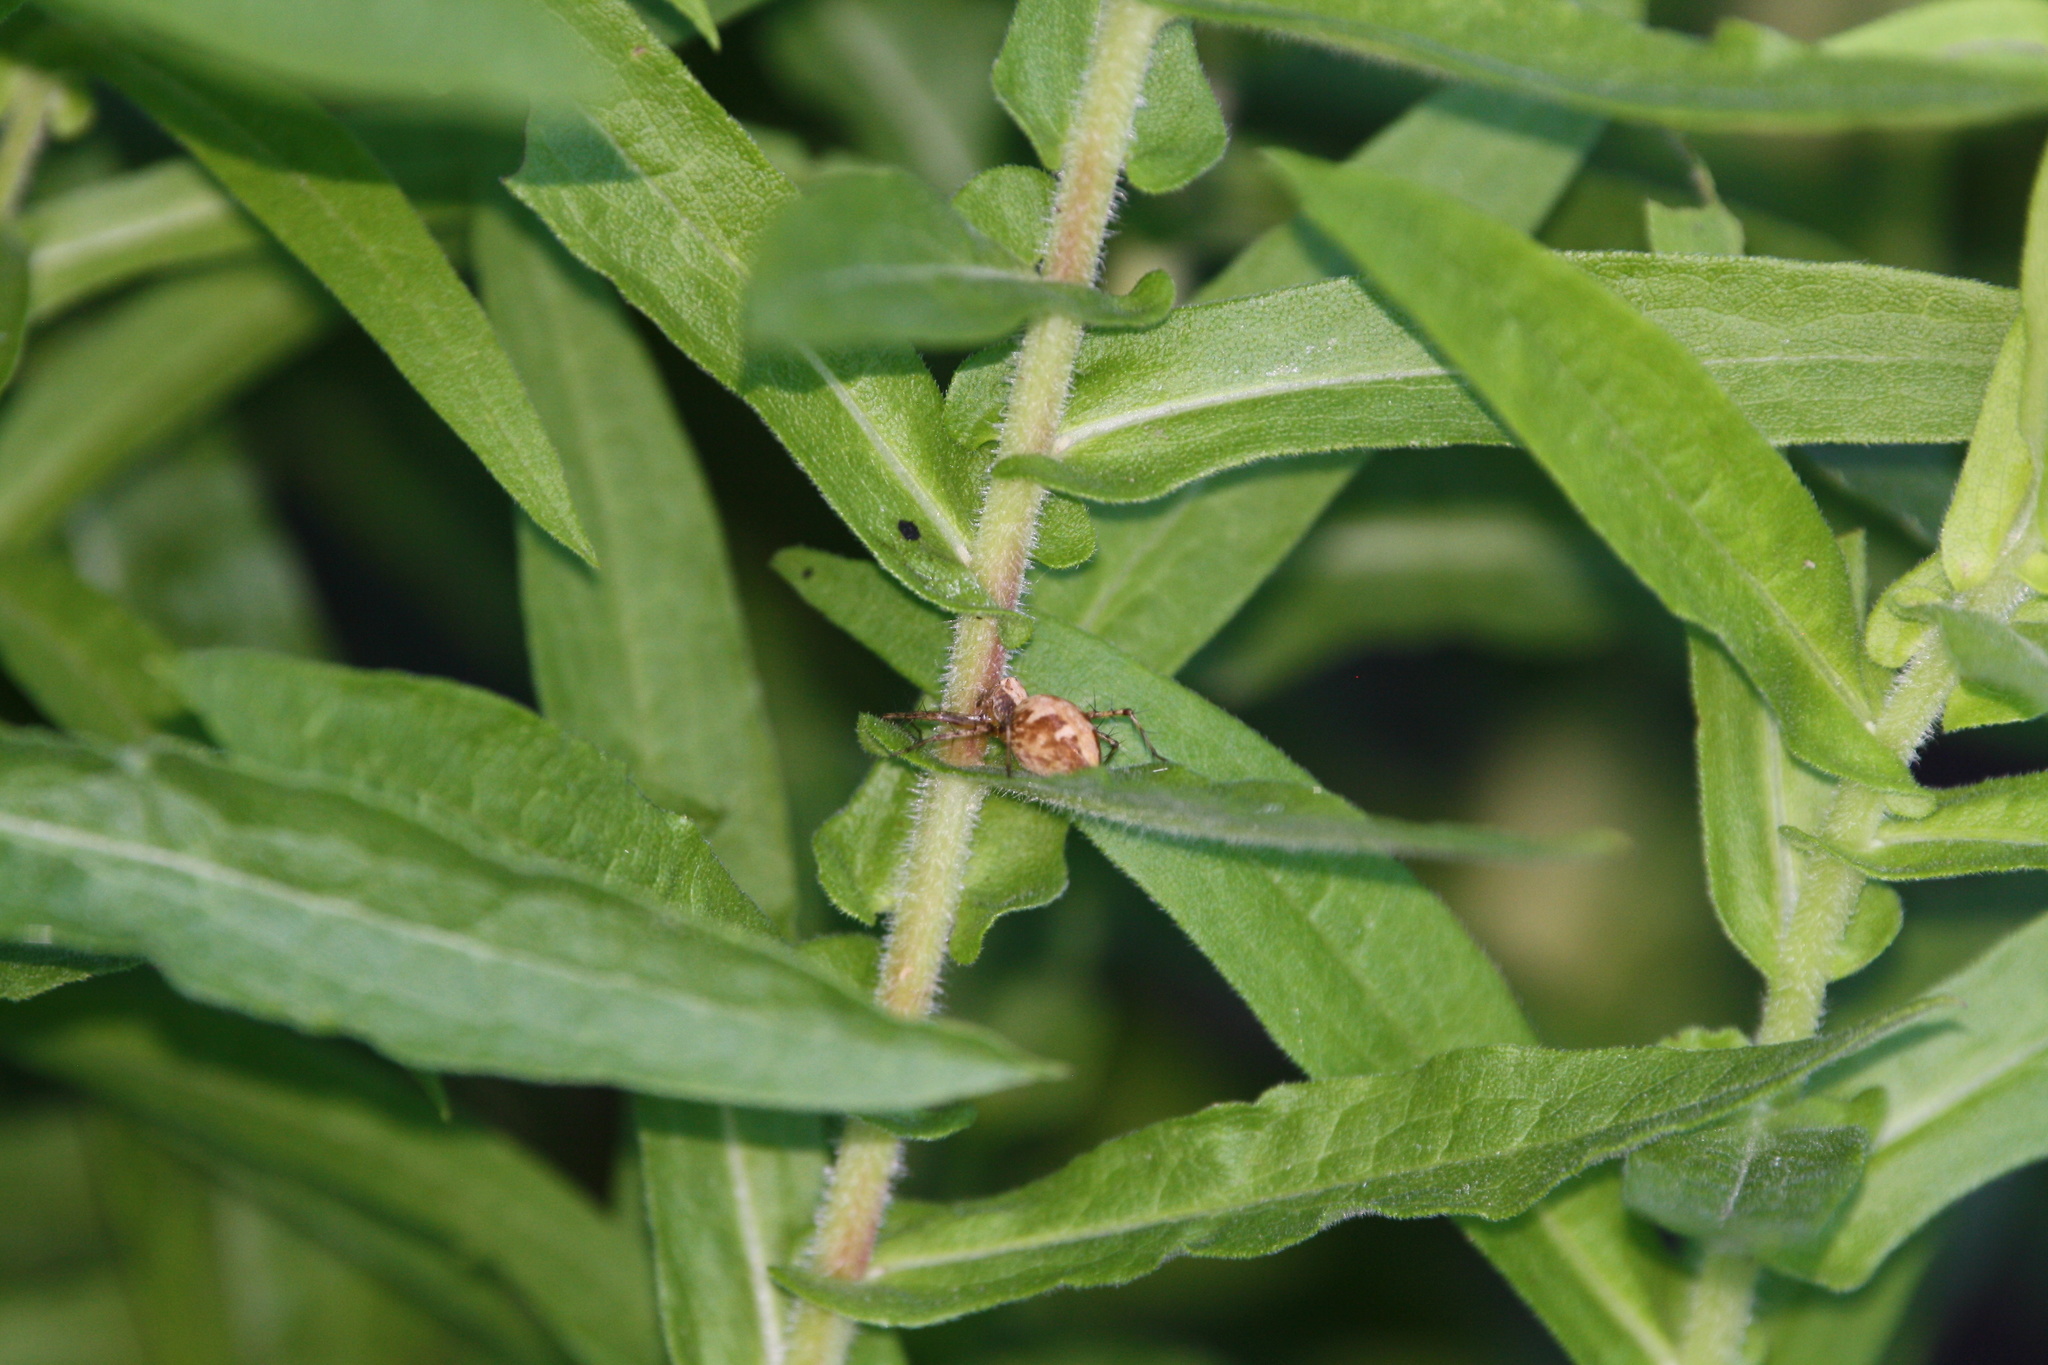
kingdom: Animalia
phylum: Arthropoda
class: Arachnida
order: Araneae
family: Oxyopidae
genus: Oxyopes
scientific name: Oxyopes scalaris
